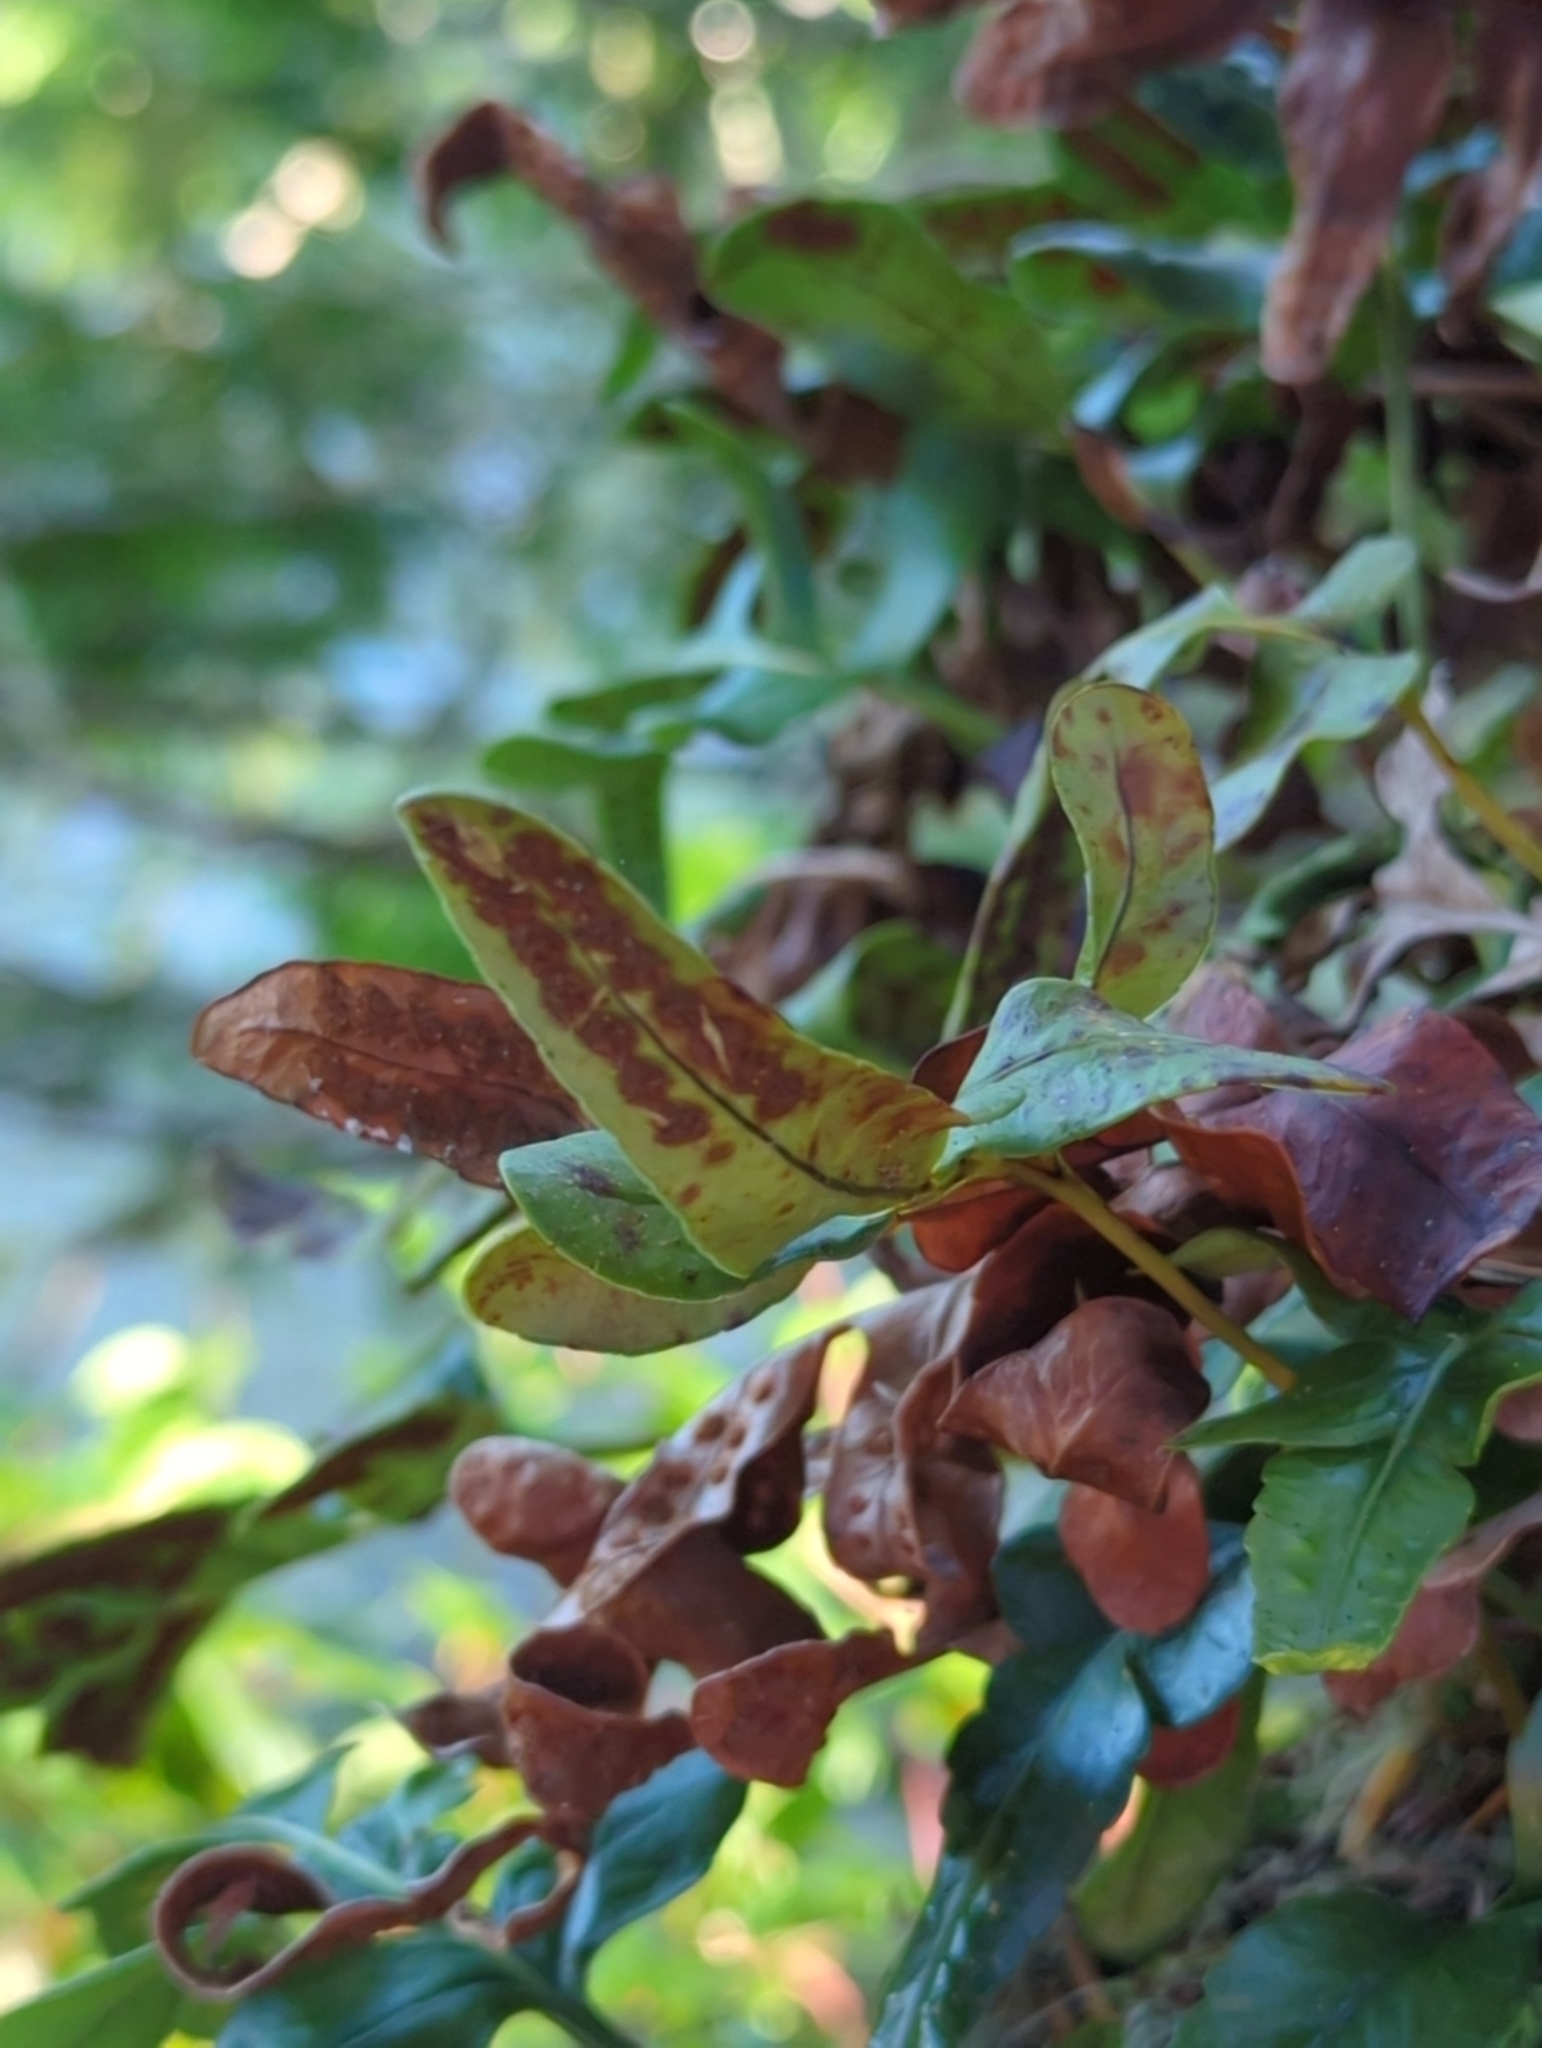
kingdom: Plantae
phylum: Tracheophyta
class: Polypodiopsida
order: Polypodiales
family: Polypodiaceae
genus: Polypodium
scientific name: Polypodium scouleri
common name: Scouler's polypody
